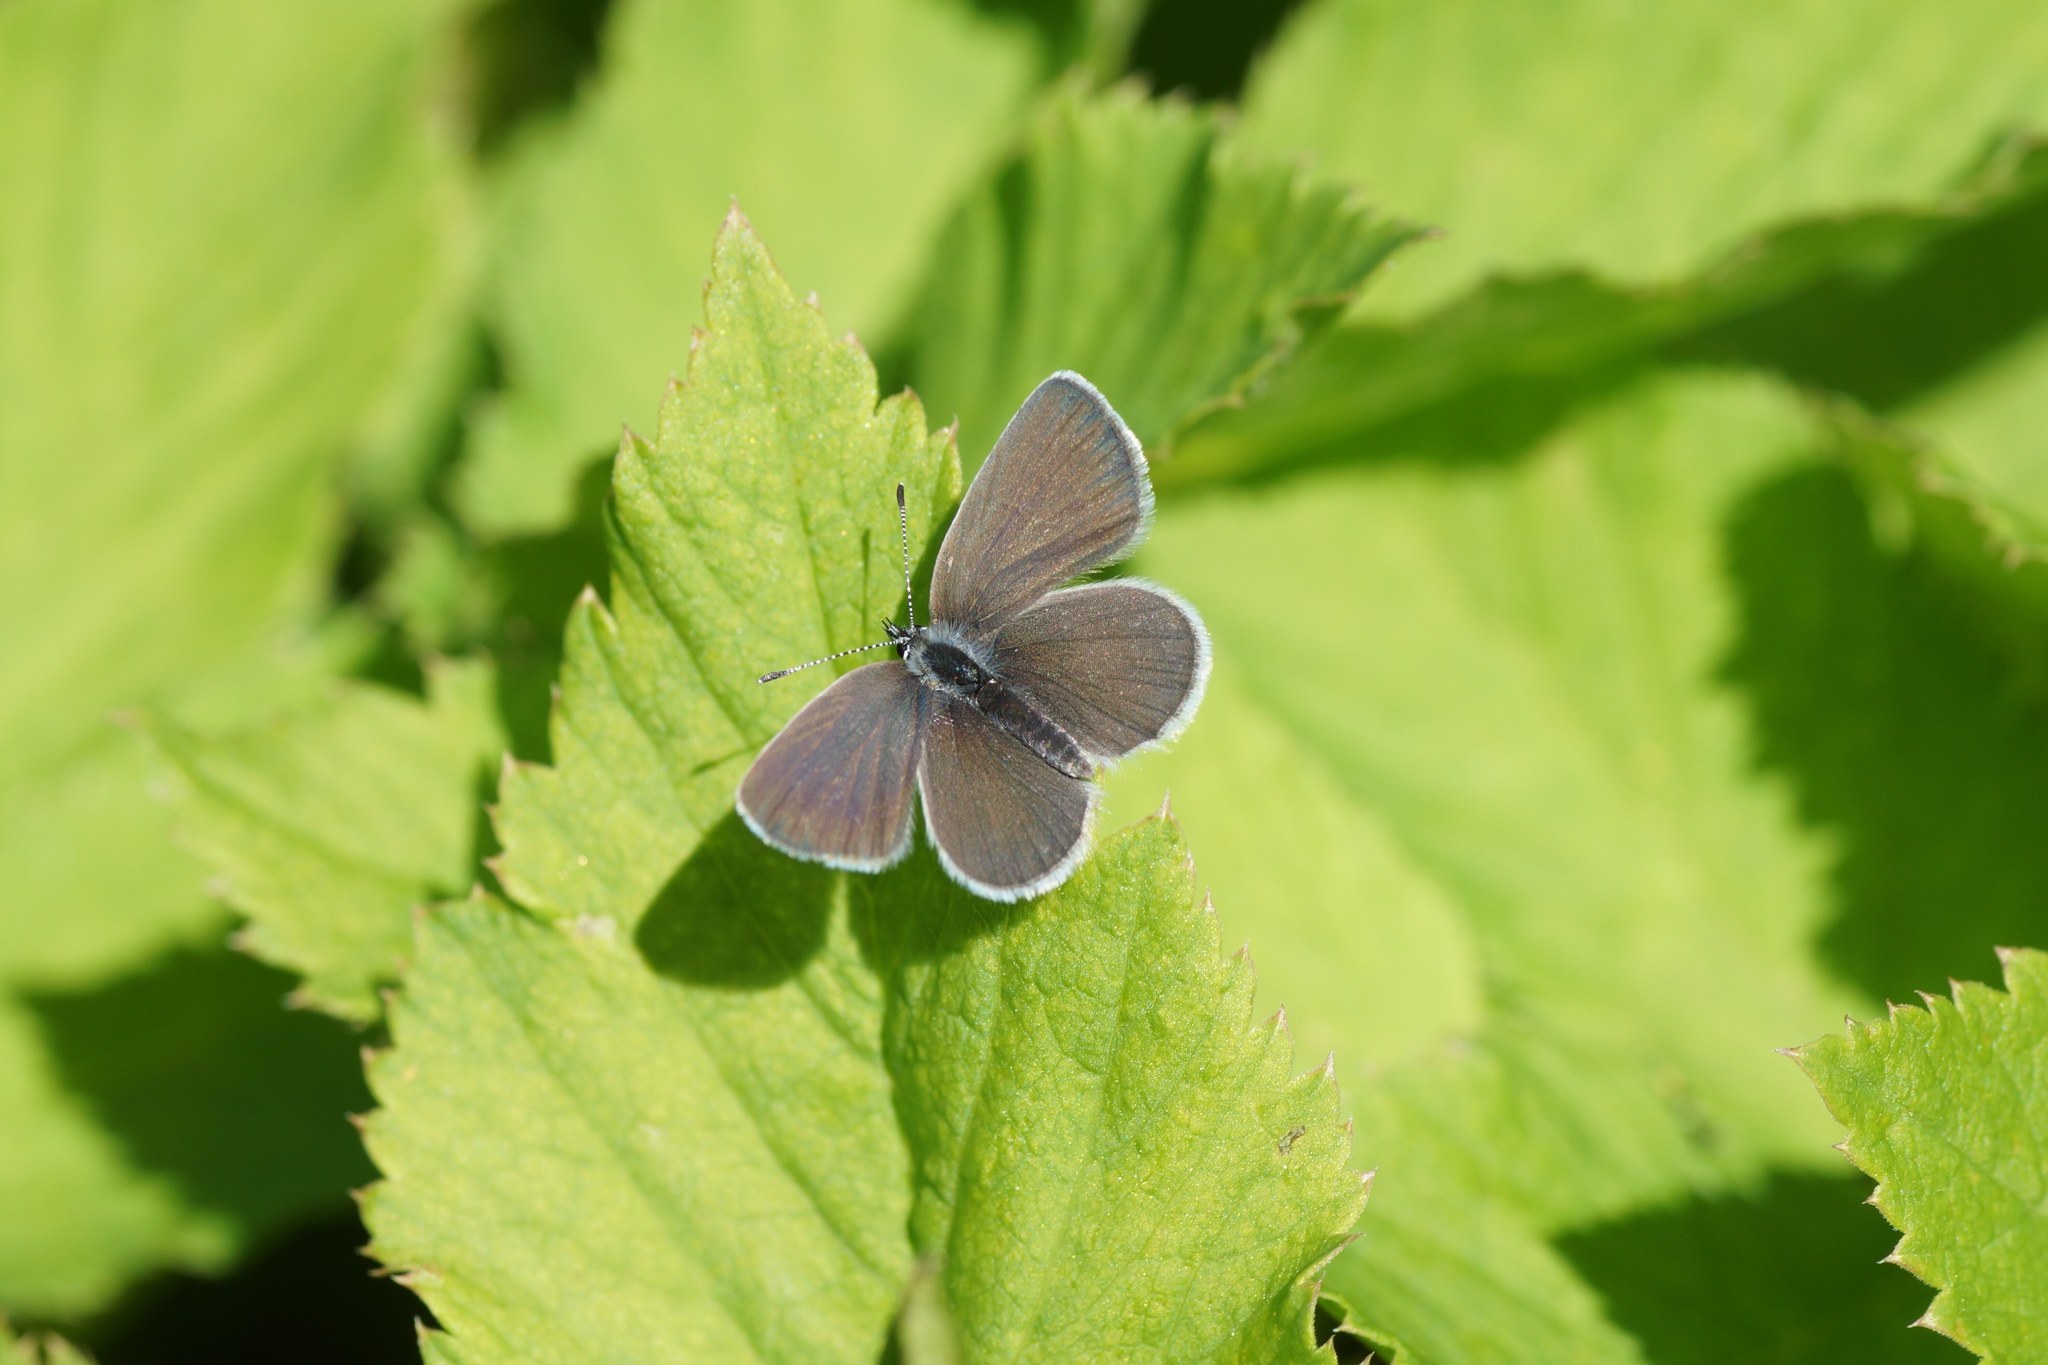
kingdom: Animalia
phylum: Arthropoda
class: Insecta
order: Lepidoptera
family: Lycaenidae
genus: Cupido
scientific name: Cupido minimus
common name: Small blue
